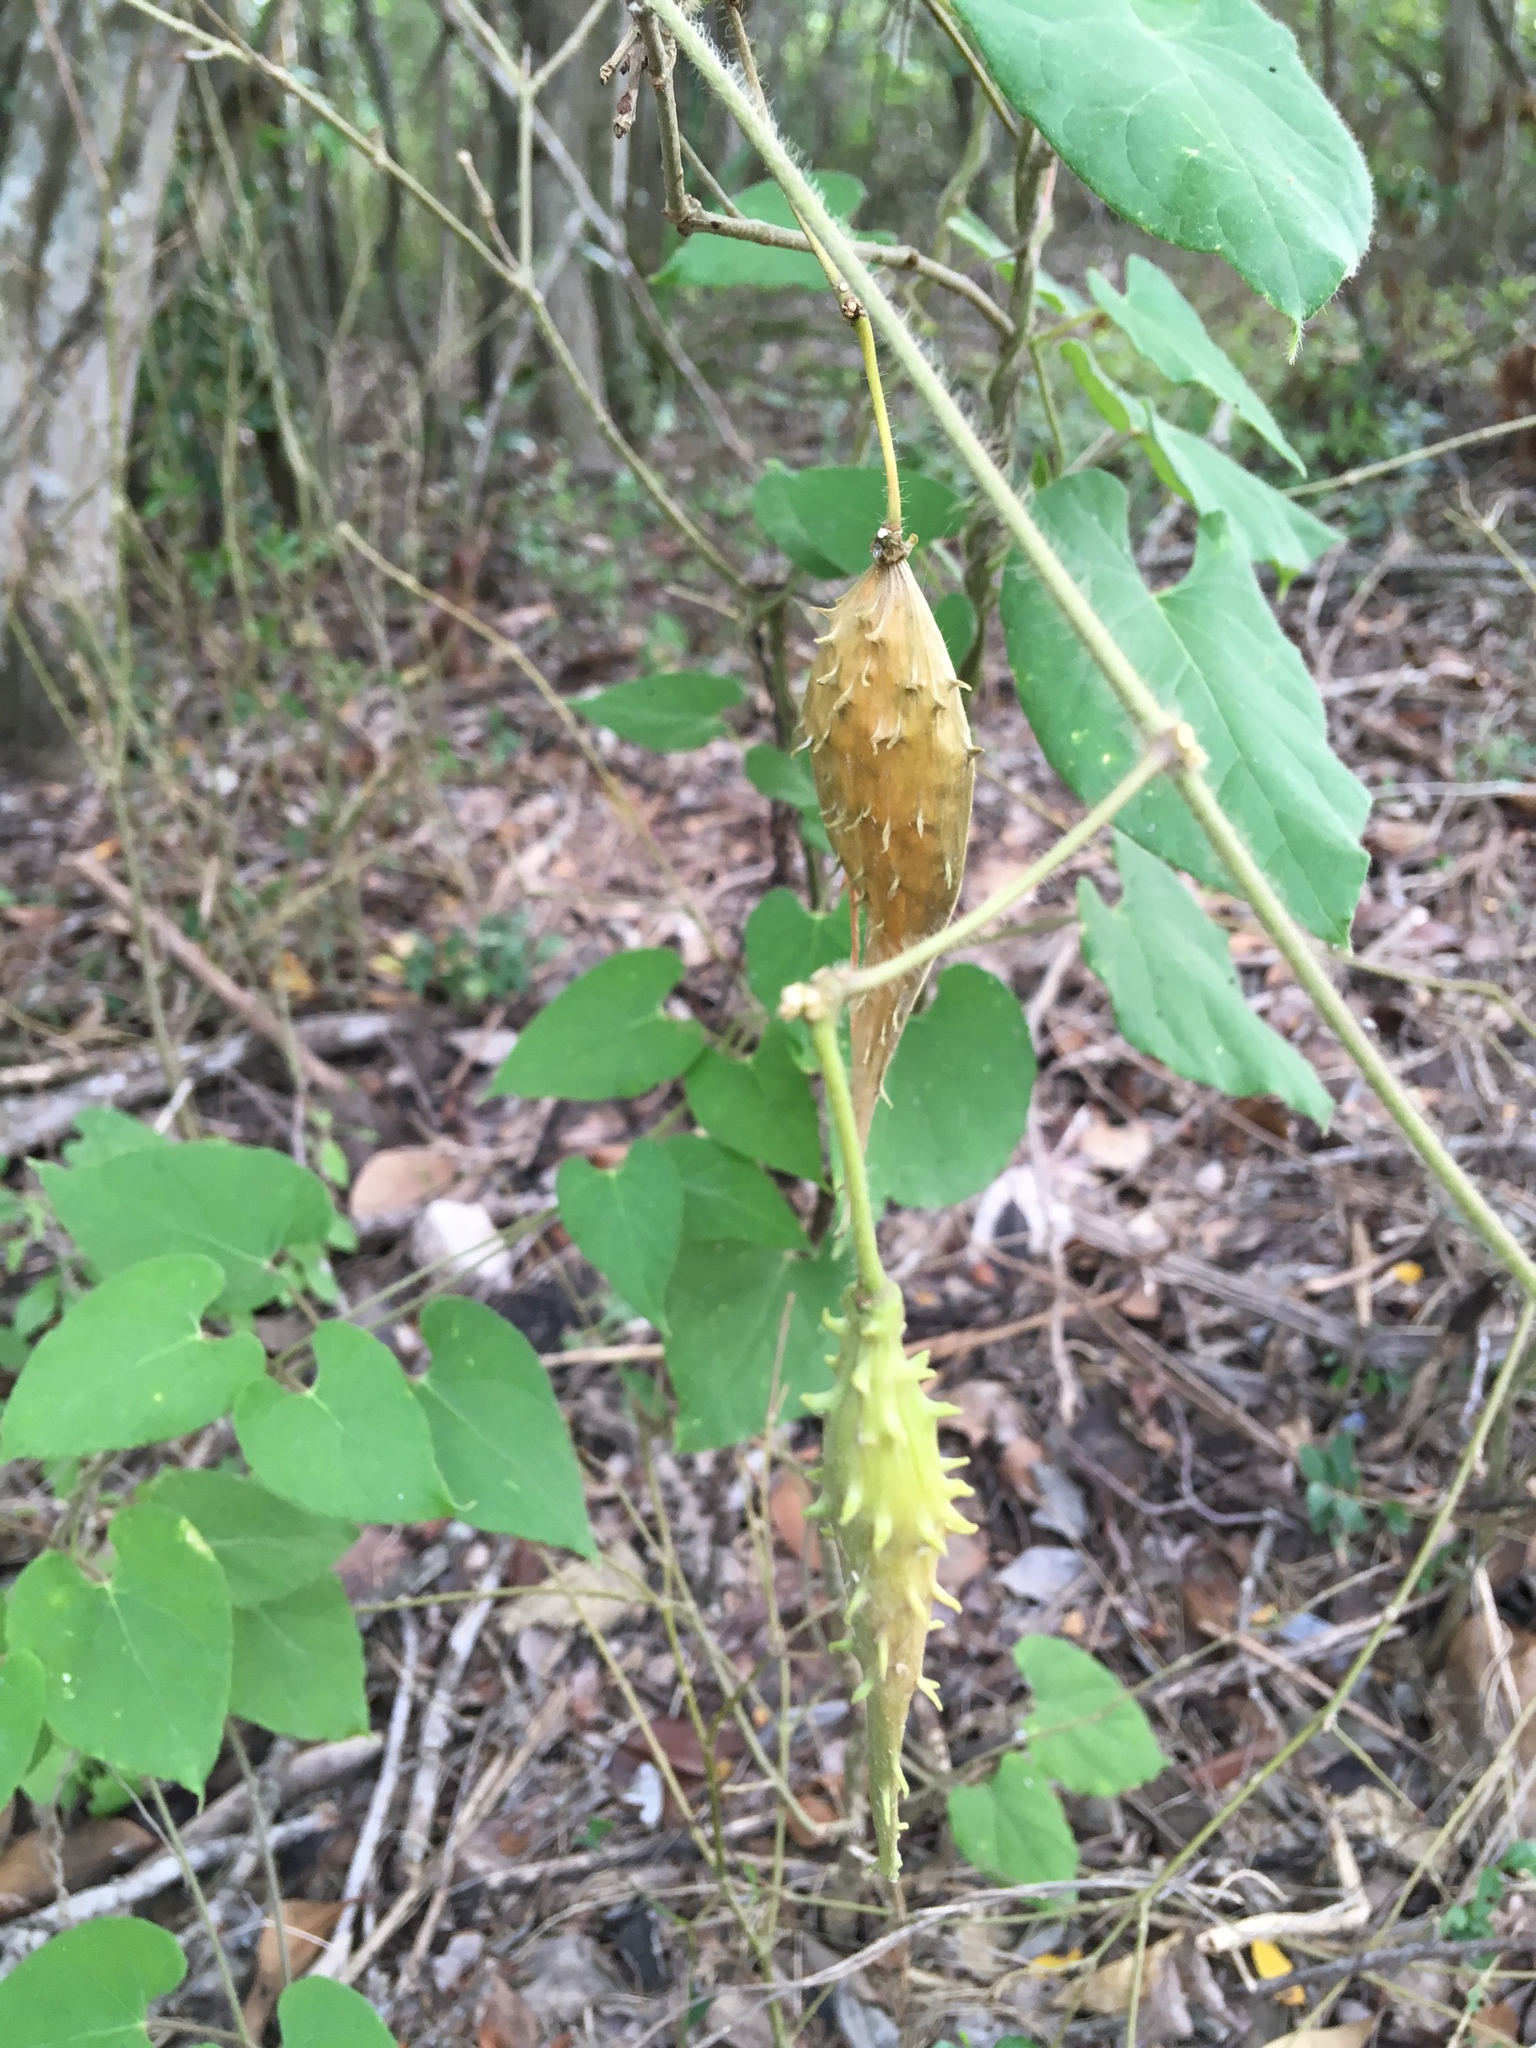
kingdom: Plantae
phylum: Tracheophyta
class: Magnoliopsida
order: Gentianales
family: Apocynaceae
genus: Dictyanthus
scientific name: Dictyanthus reticulatus
